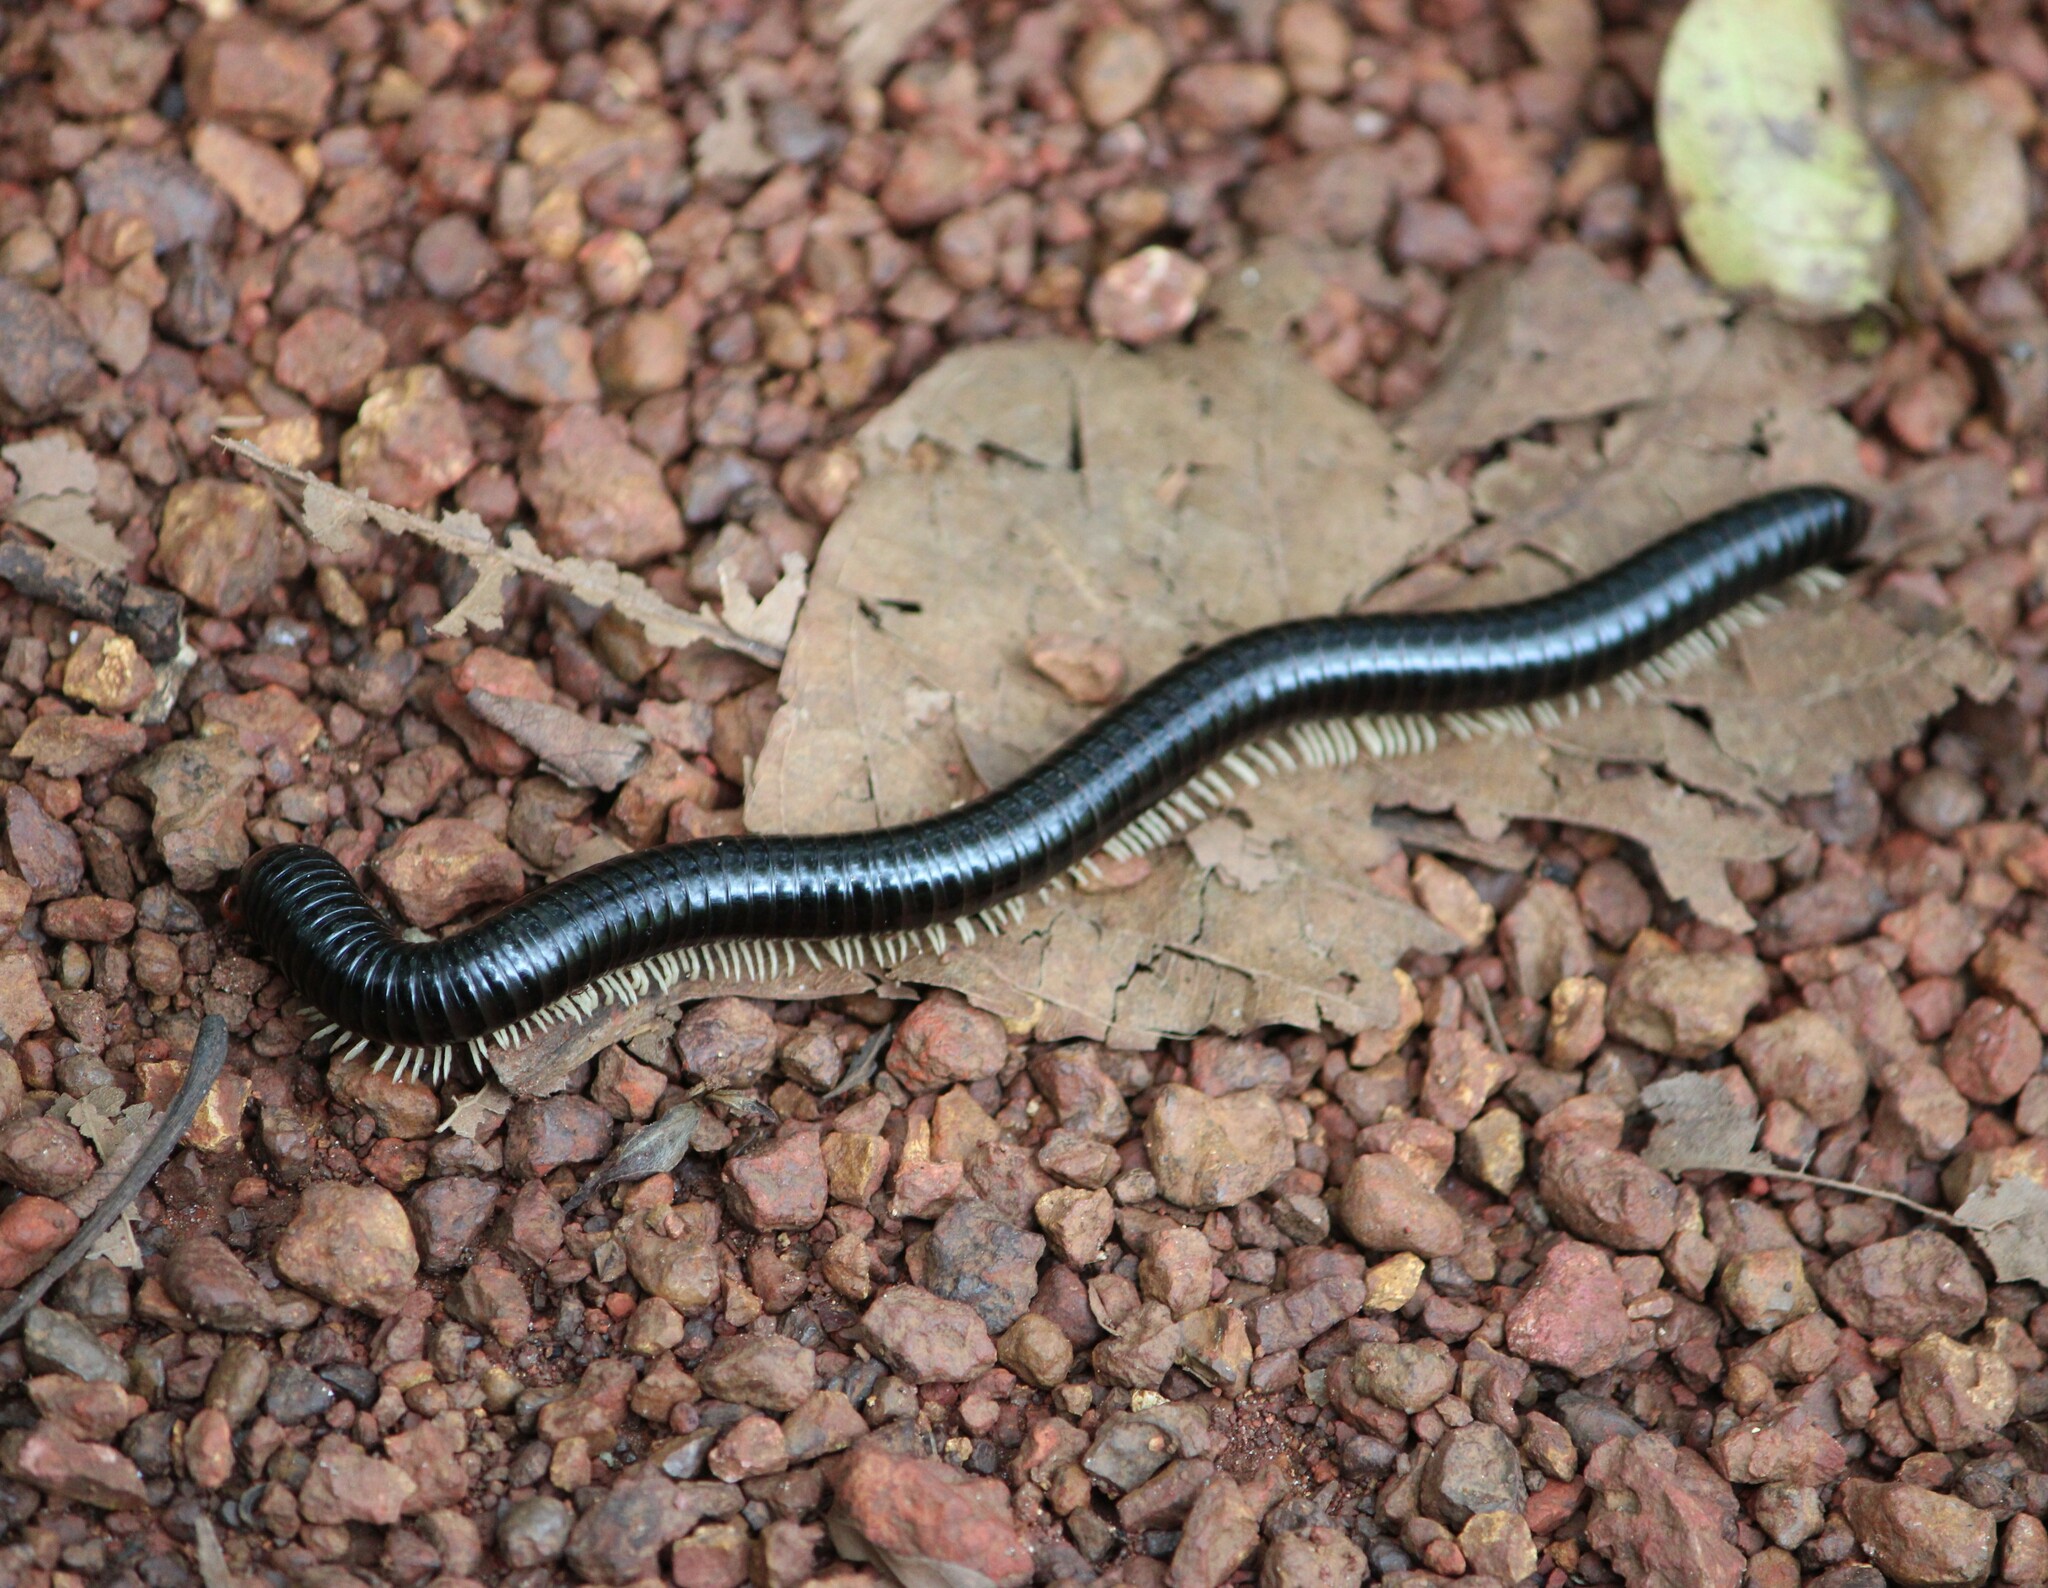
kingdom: Animalia
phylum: Arthropoda
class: Diplopoda
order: Spirostreptida
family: Harpagophoridae
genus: Phyllogonostreptus
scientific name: Phyllogonostreptus nigrolabiatus
